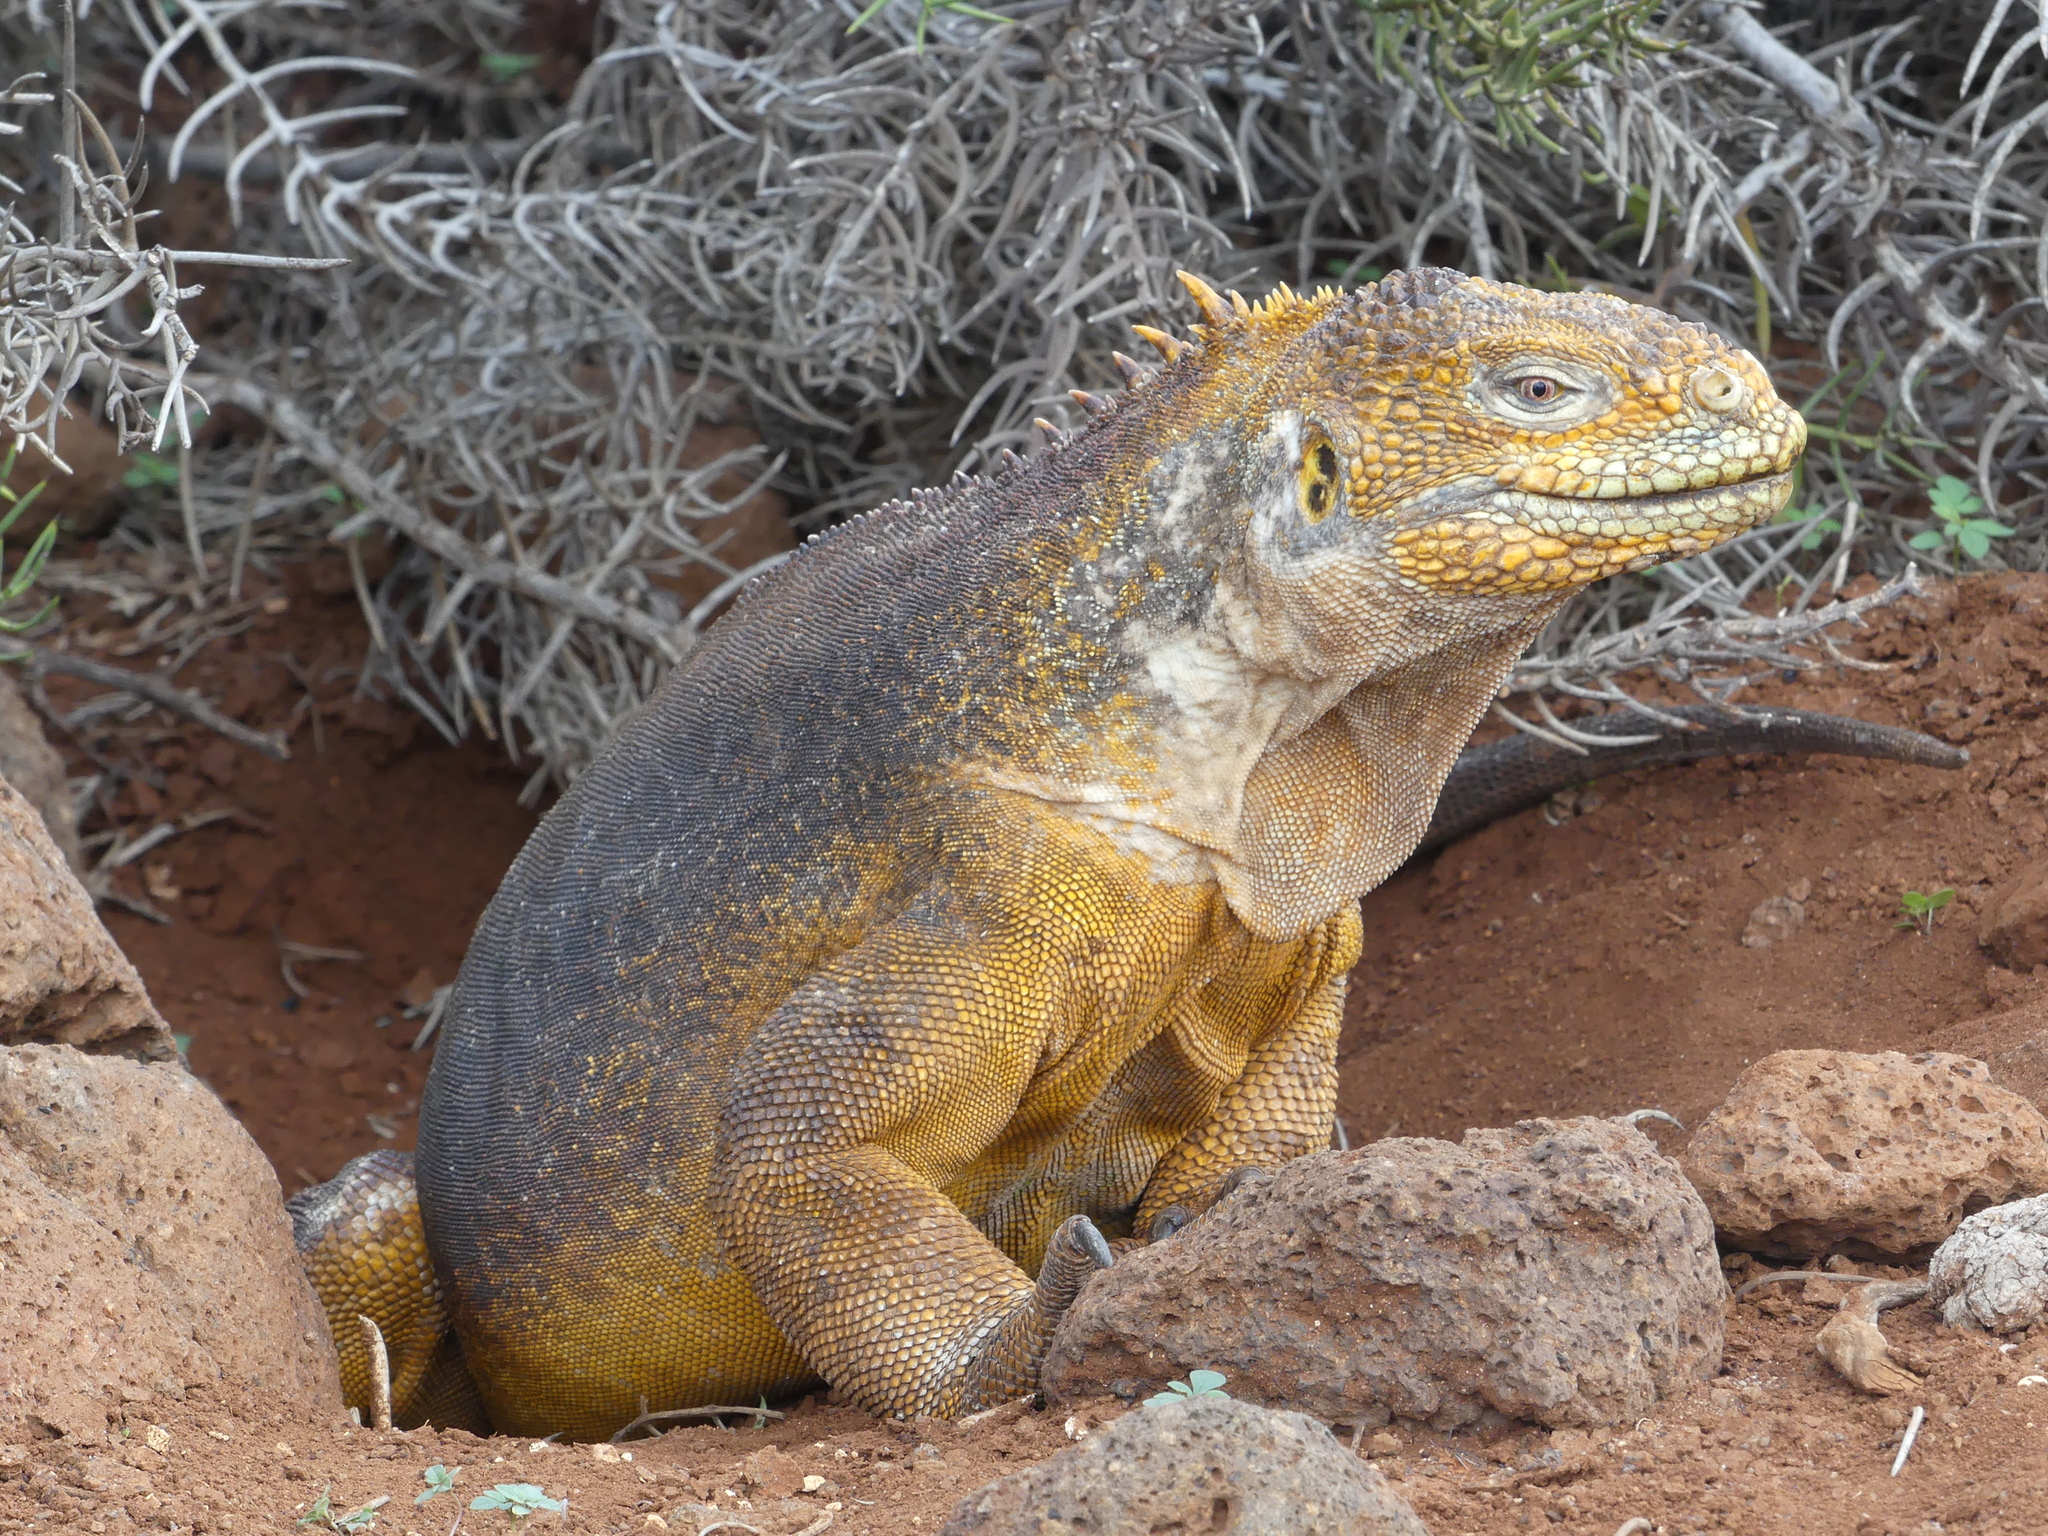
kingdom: Animalia
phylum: Chordata
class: Squamata
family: Iguanidae
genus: Conolophus
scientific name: Conolophus subcristatus
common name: Galapagos land iguana
